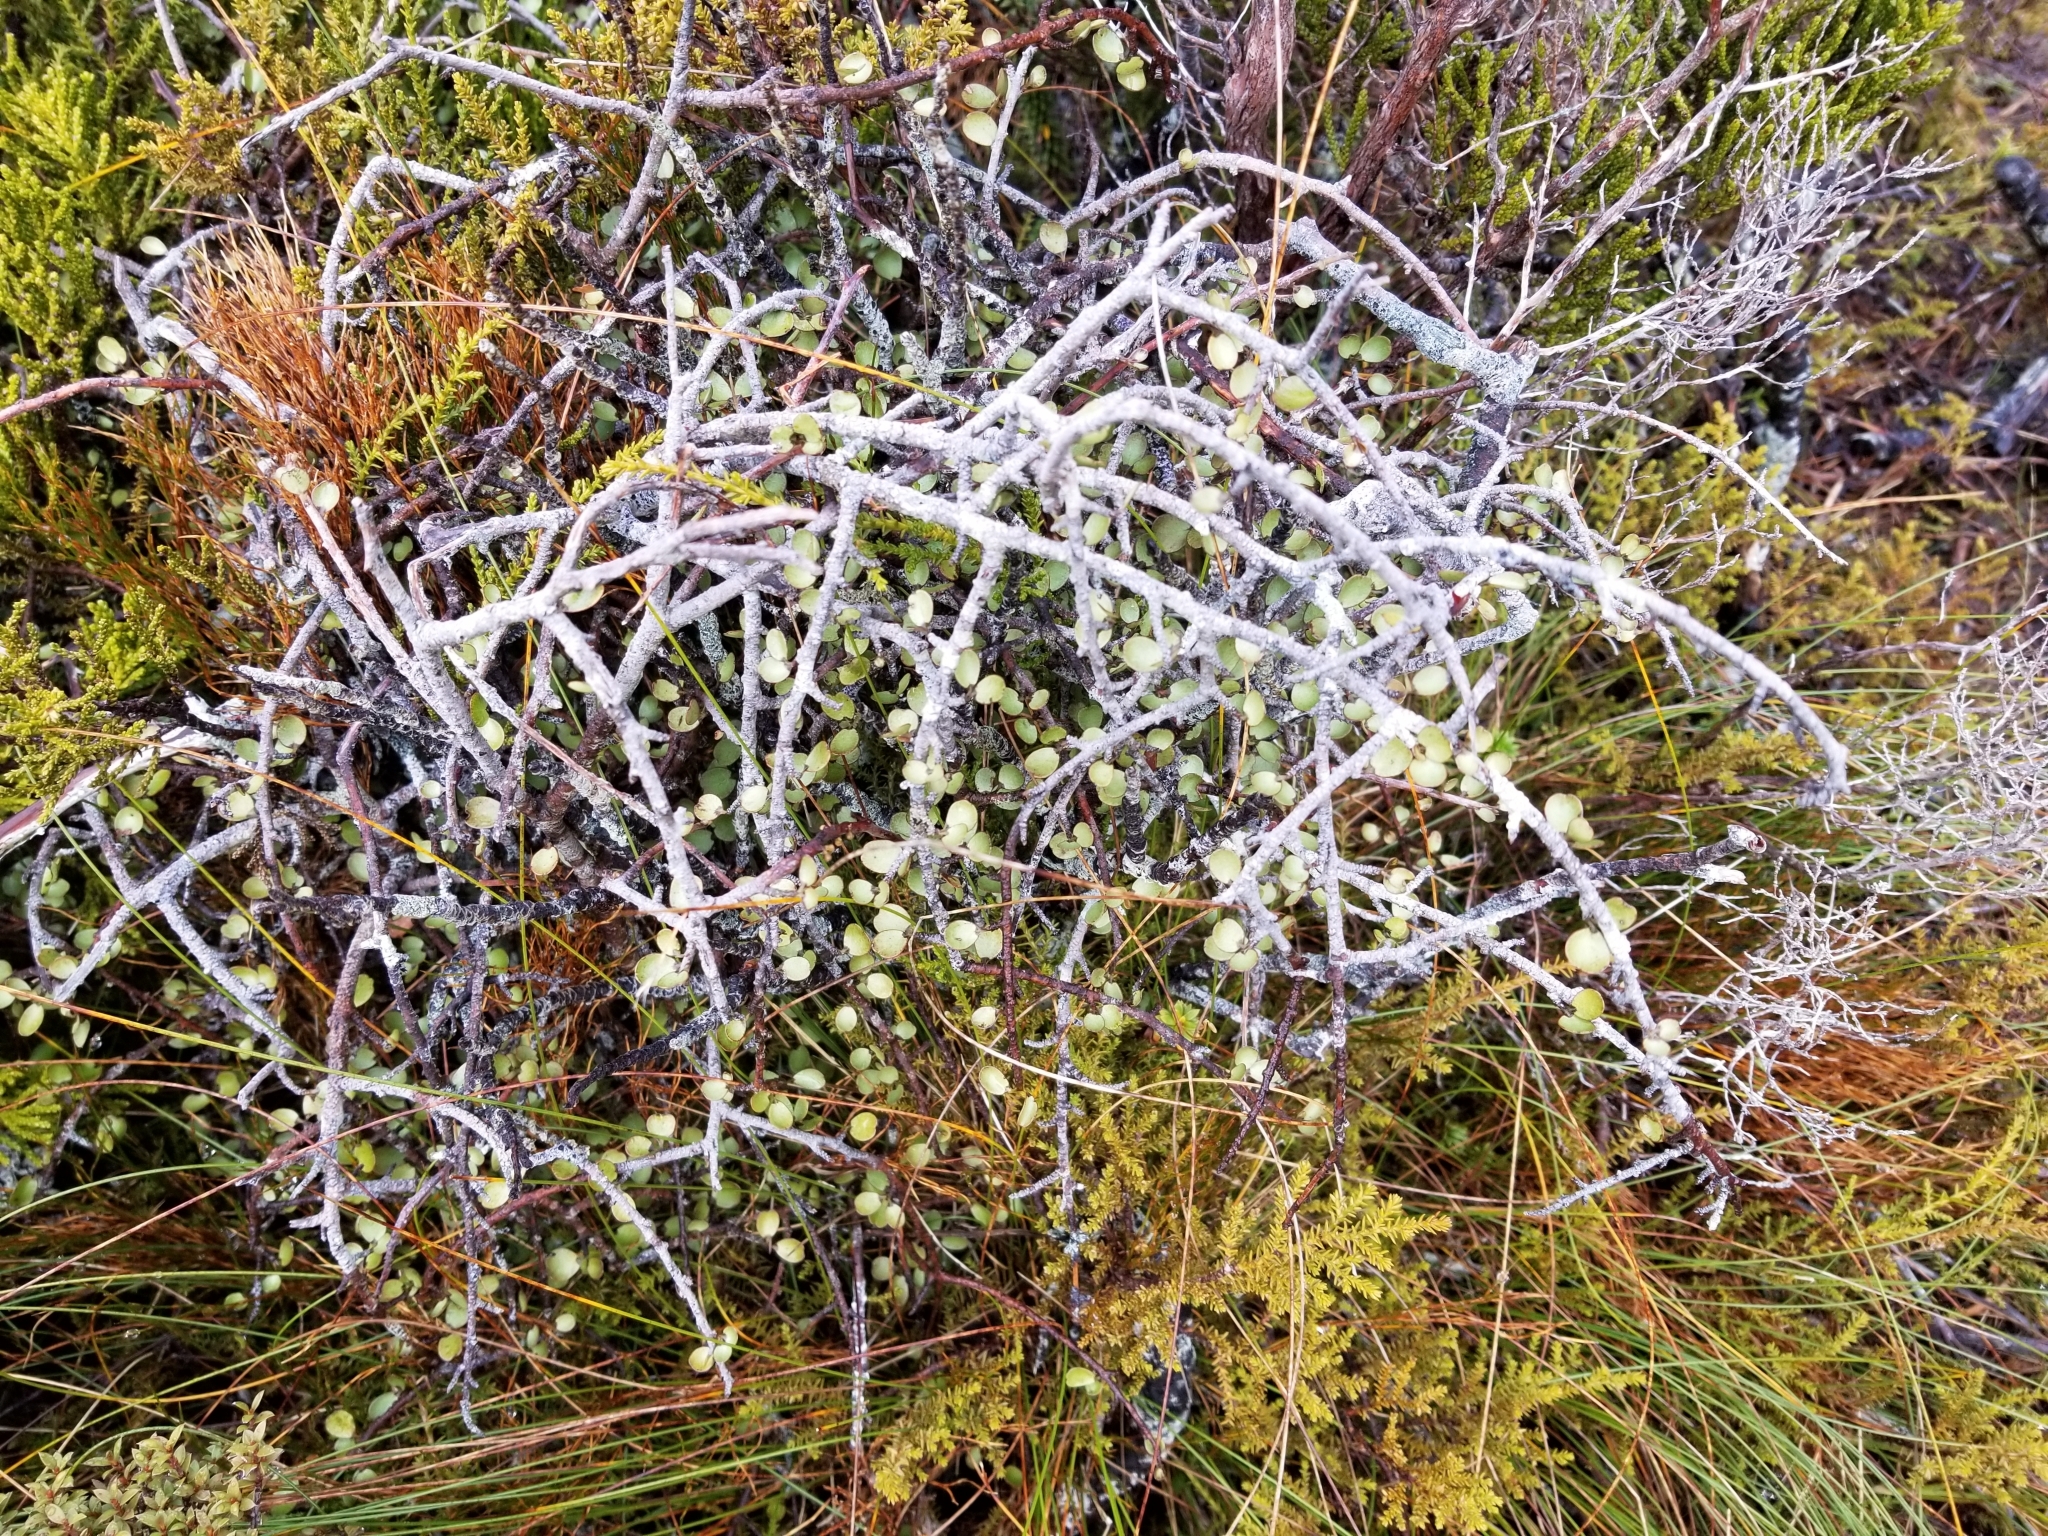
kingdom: Plantae
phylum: Tracheophyta
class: Magnoliopsida
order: Ericales
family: Primulaceae
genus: Myrsine
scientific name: Myrsine divaricata
